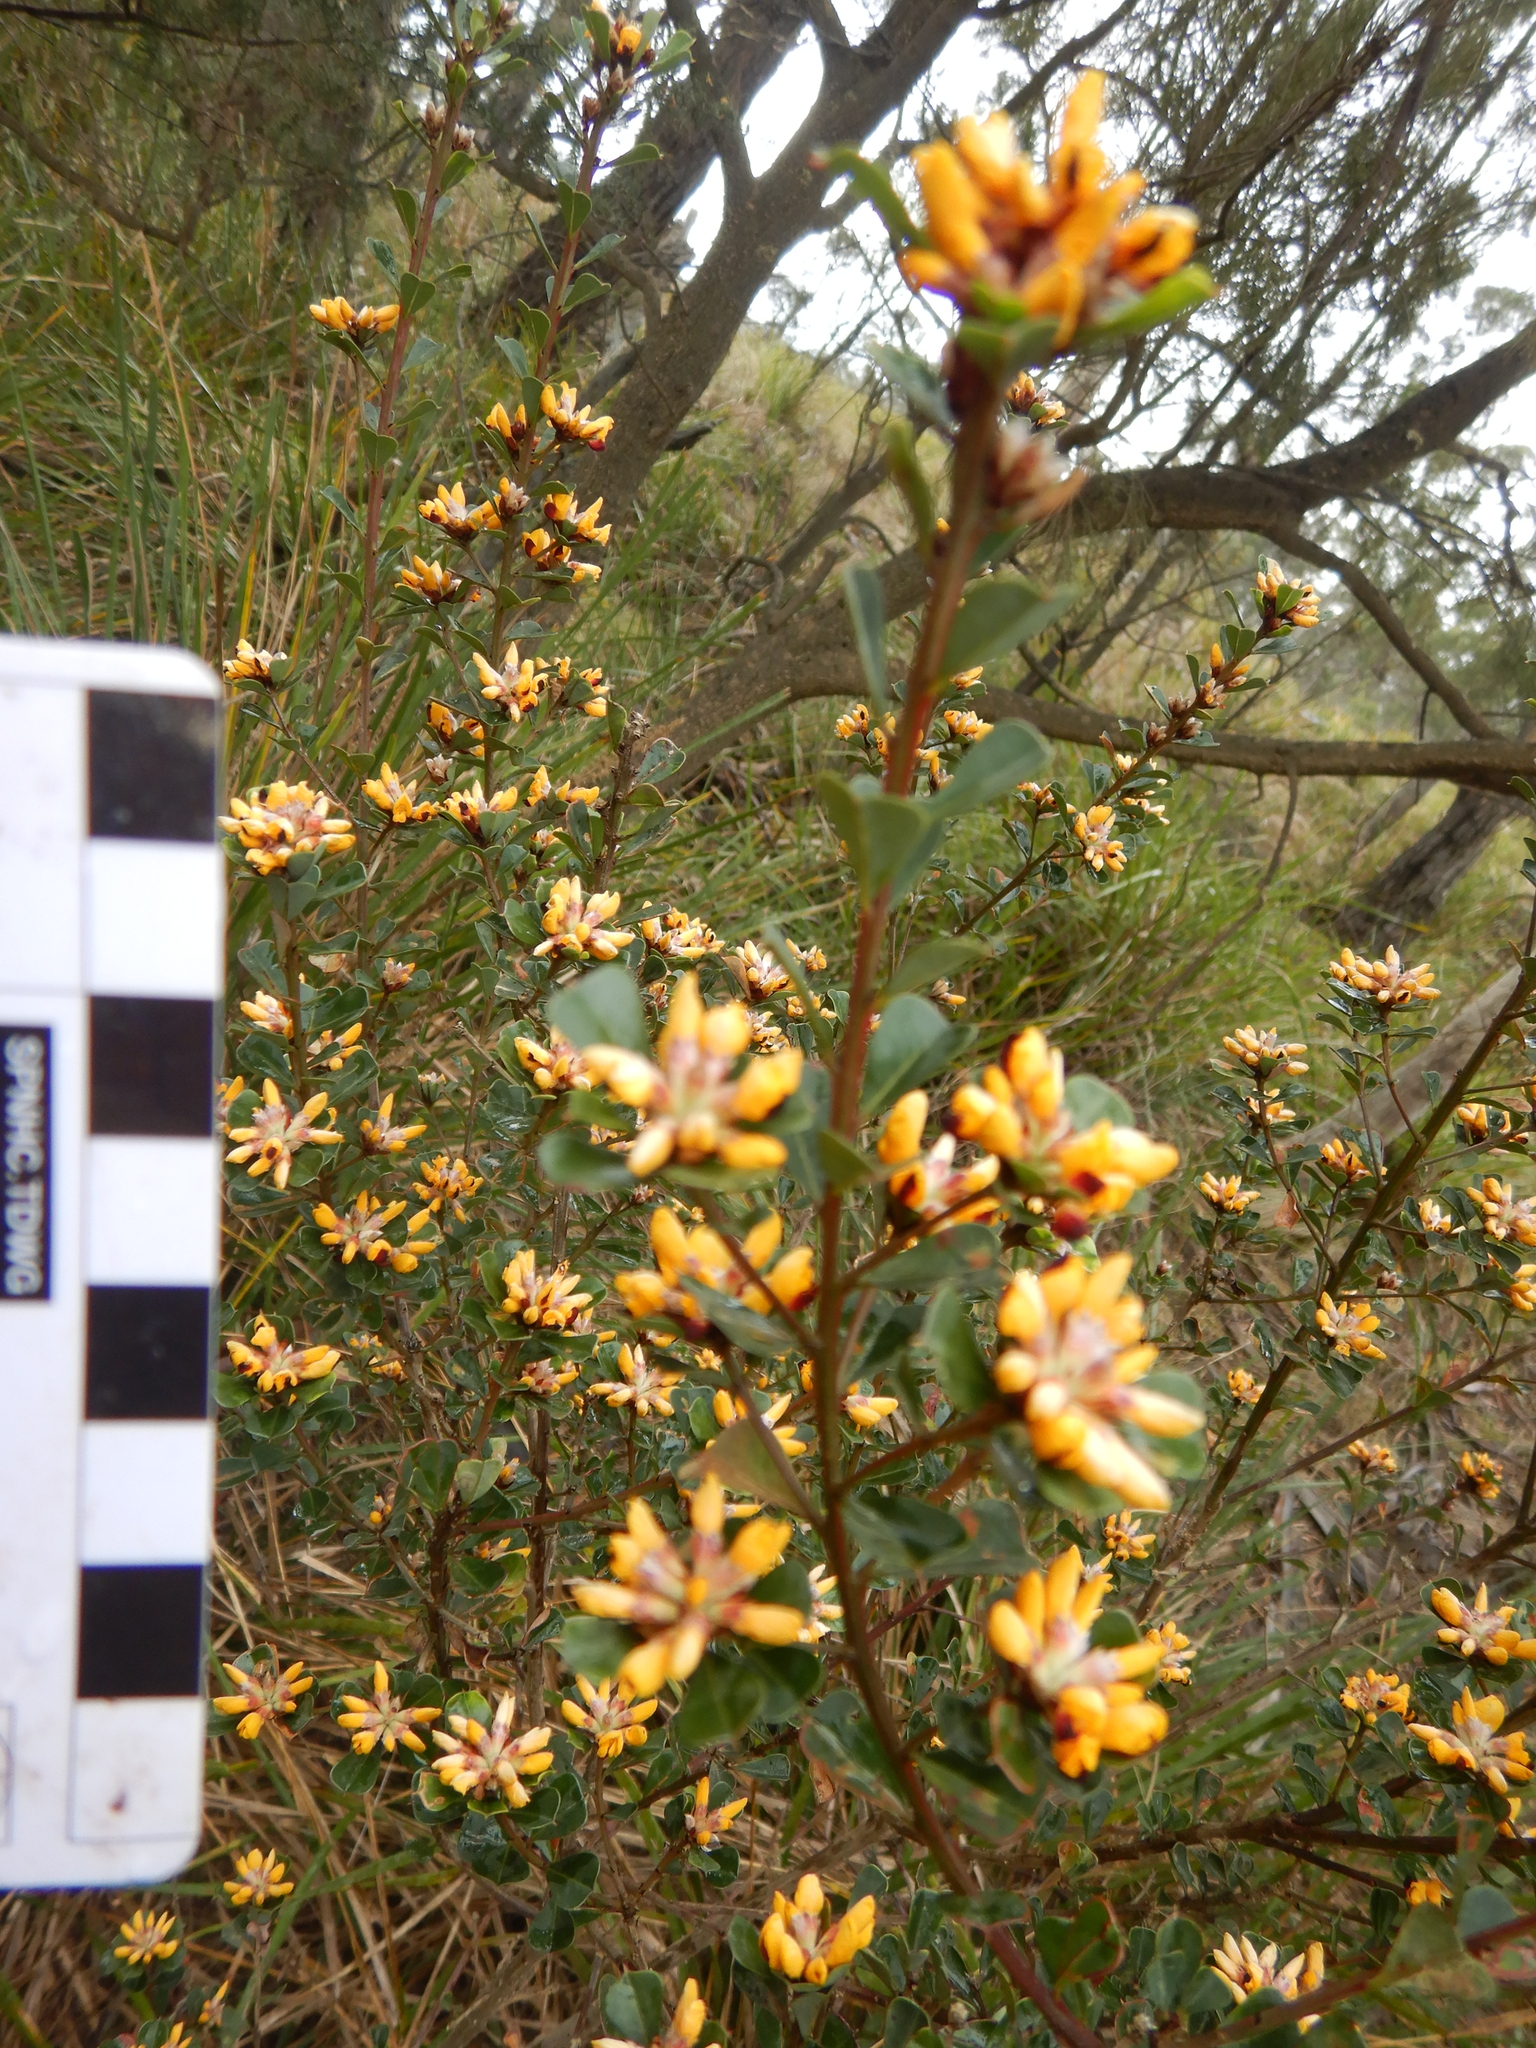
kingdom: Plantae
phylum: Tracheophyta
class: Magnoliopsida
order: Fabales
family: Fabaceae
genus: Pultenaea
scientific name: Pultenaea daphnoides
